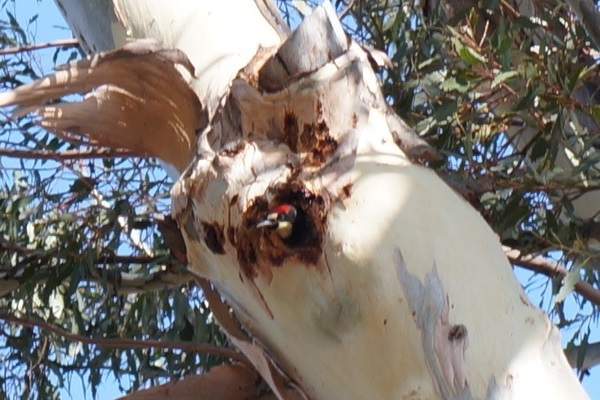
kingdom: Animalia
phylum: Chordata
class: Aves
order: Piciformes
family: Picidae
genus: Melanerpes
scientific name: Melanerpes formicivorus
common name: Acorn woodpecker
